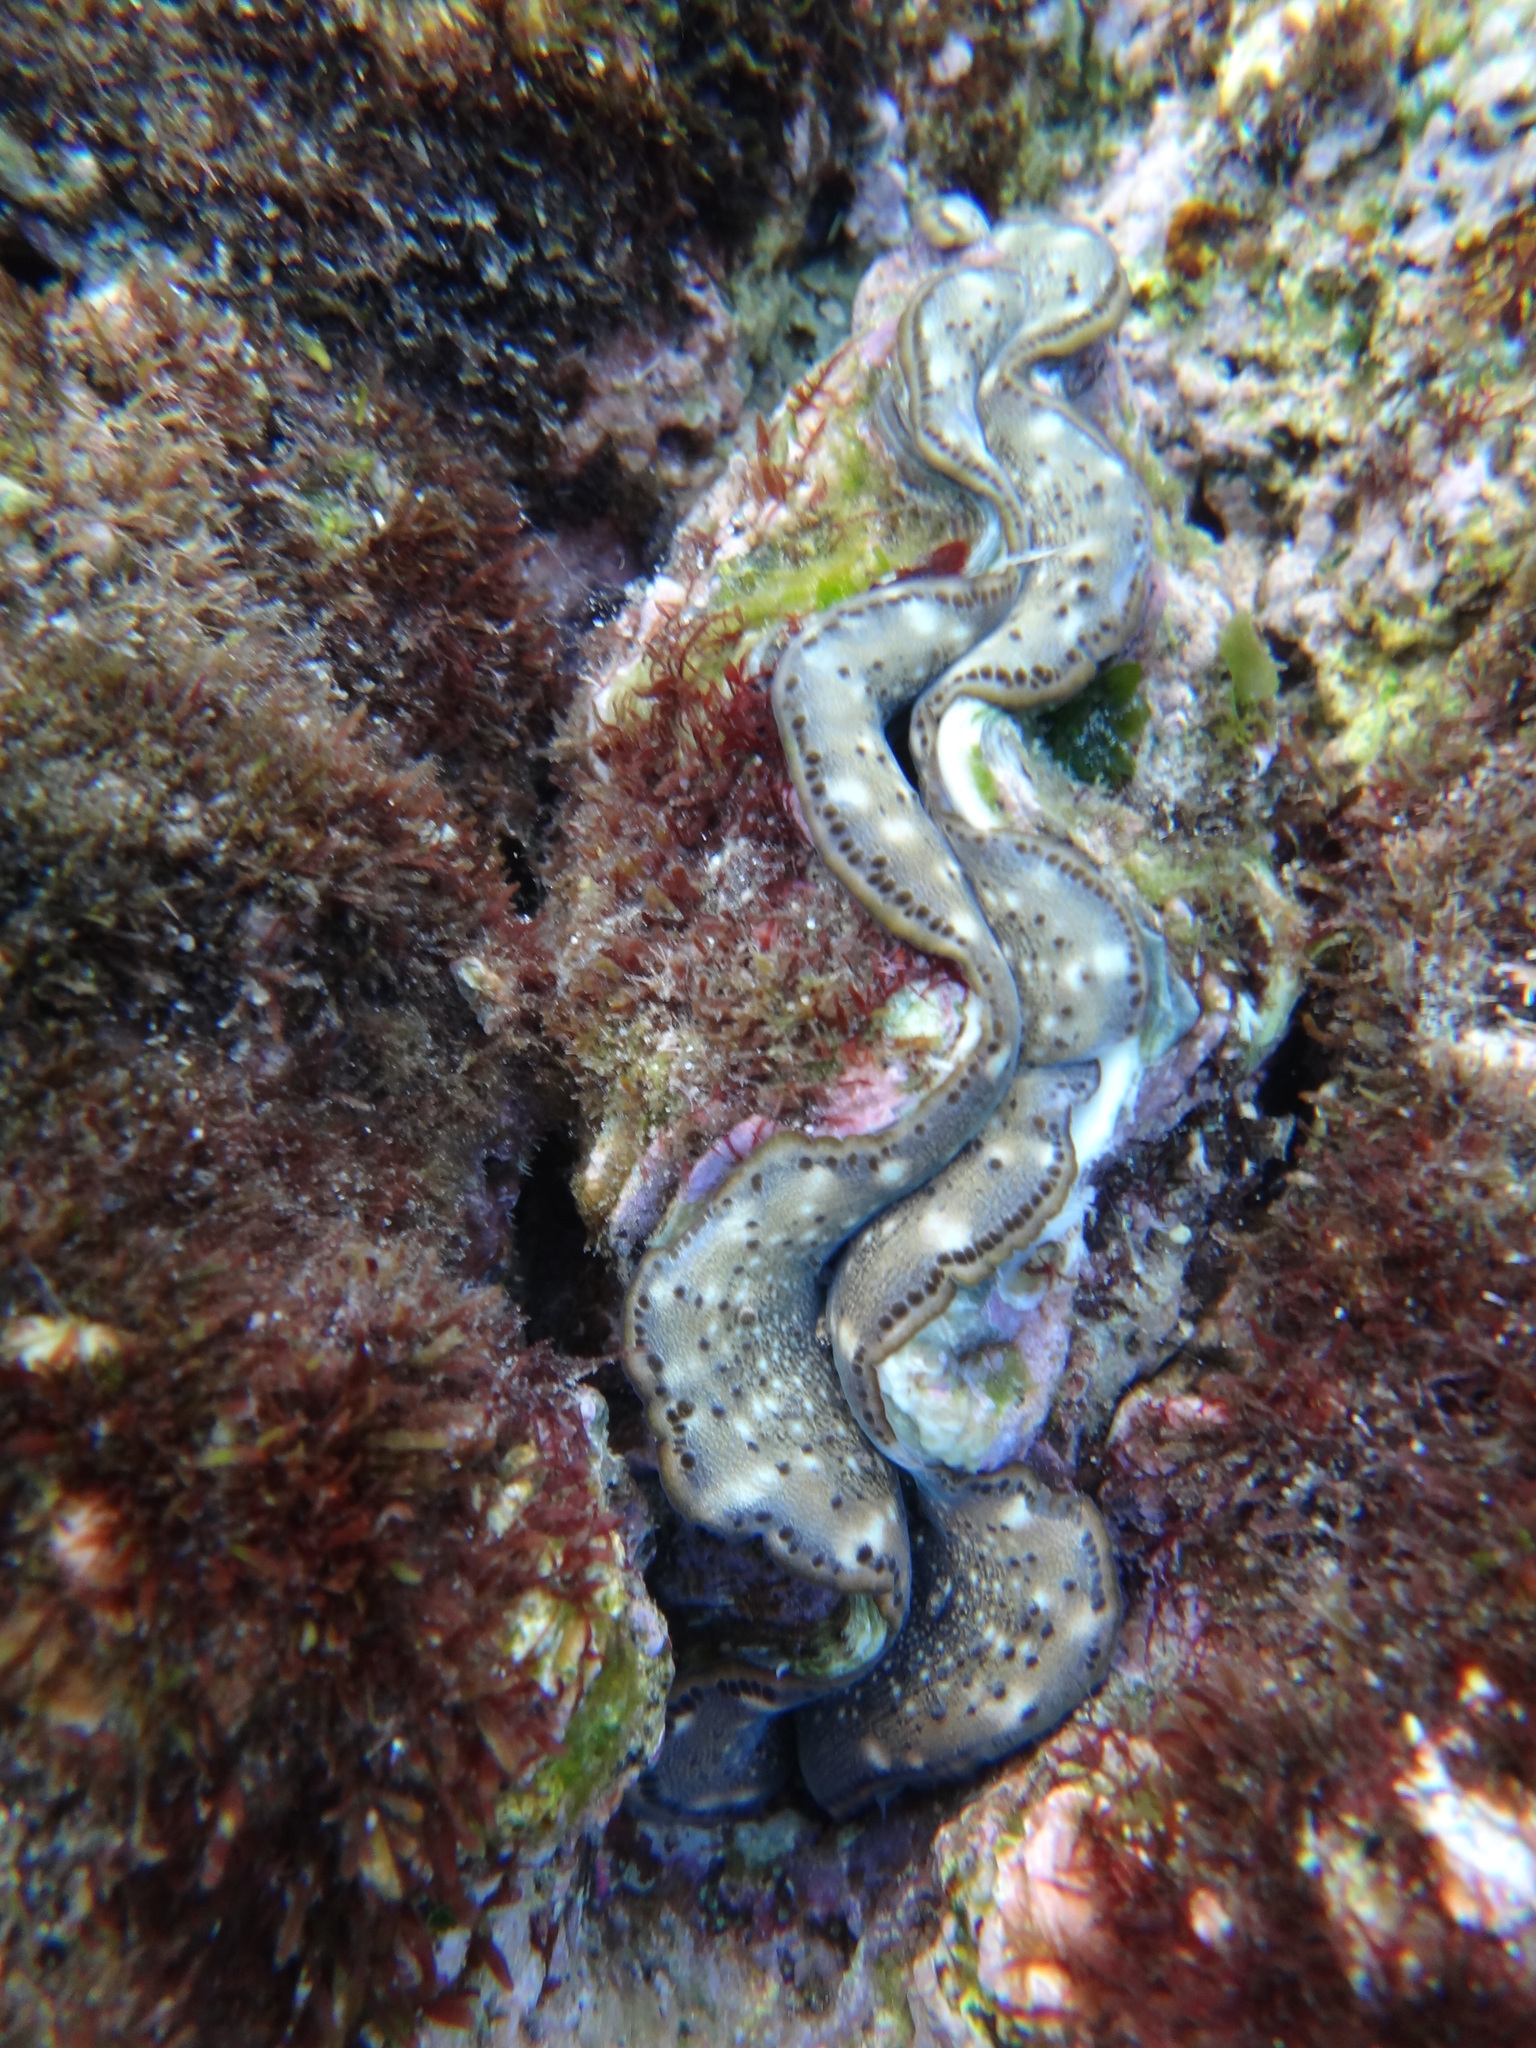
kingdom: Animalia
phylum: Mollusca
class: Bivalvia
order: Cardiida
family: Cardiidae
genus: Tridacna
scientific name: Tridacna maxima
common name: Small giant clam
